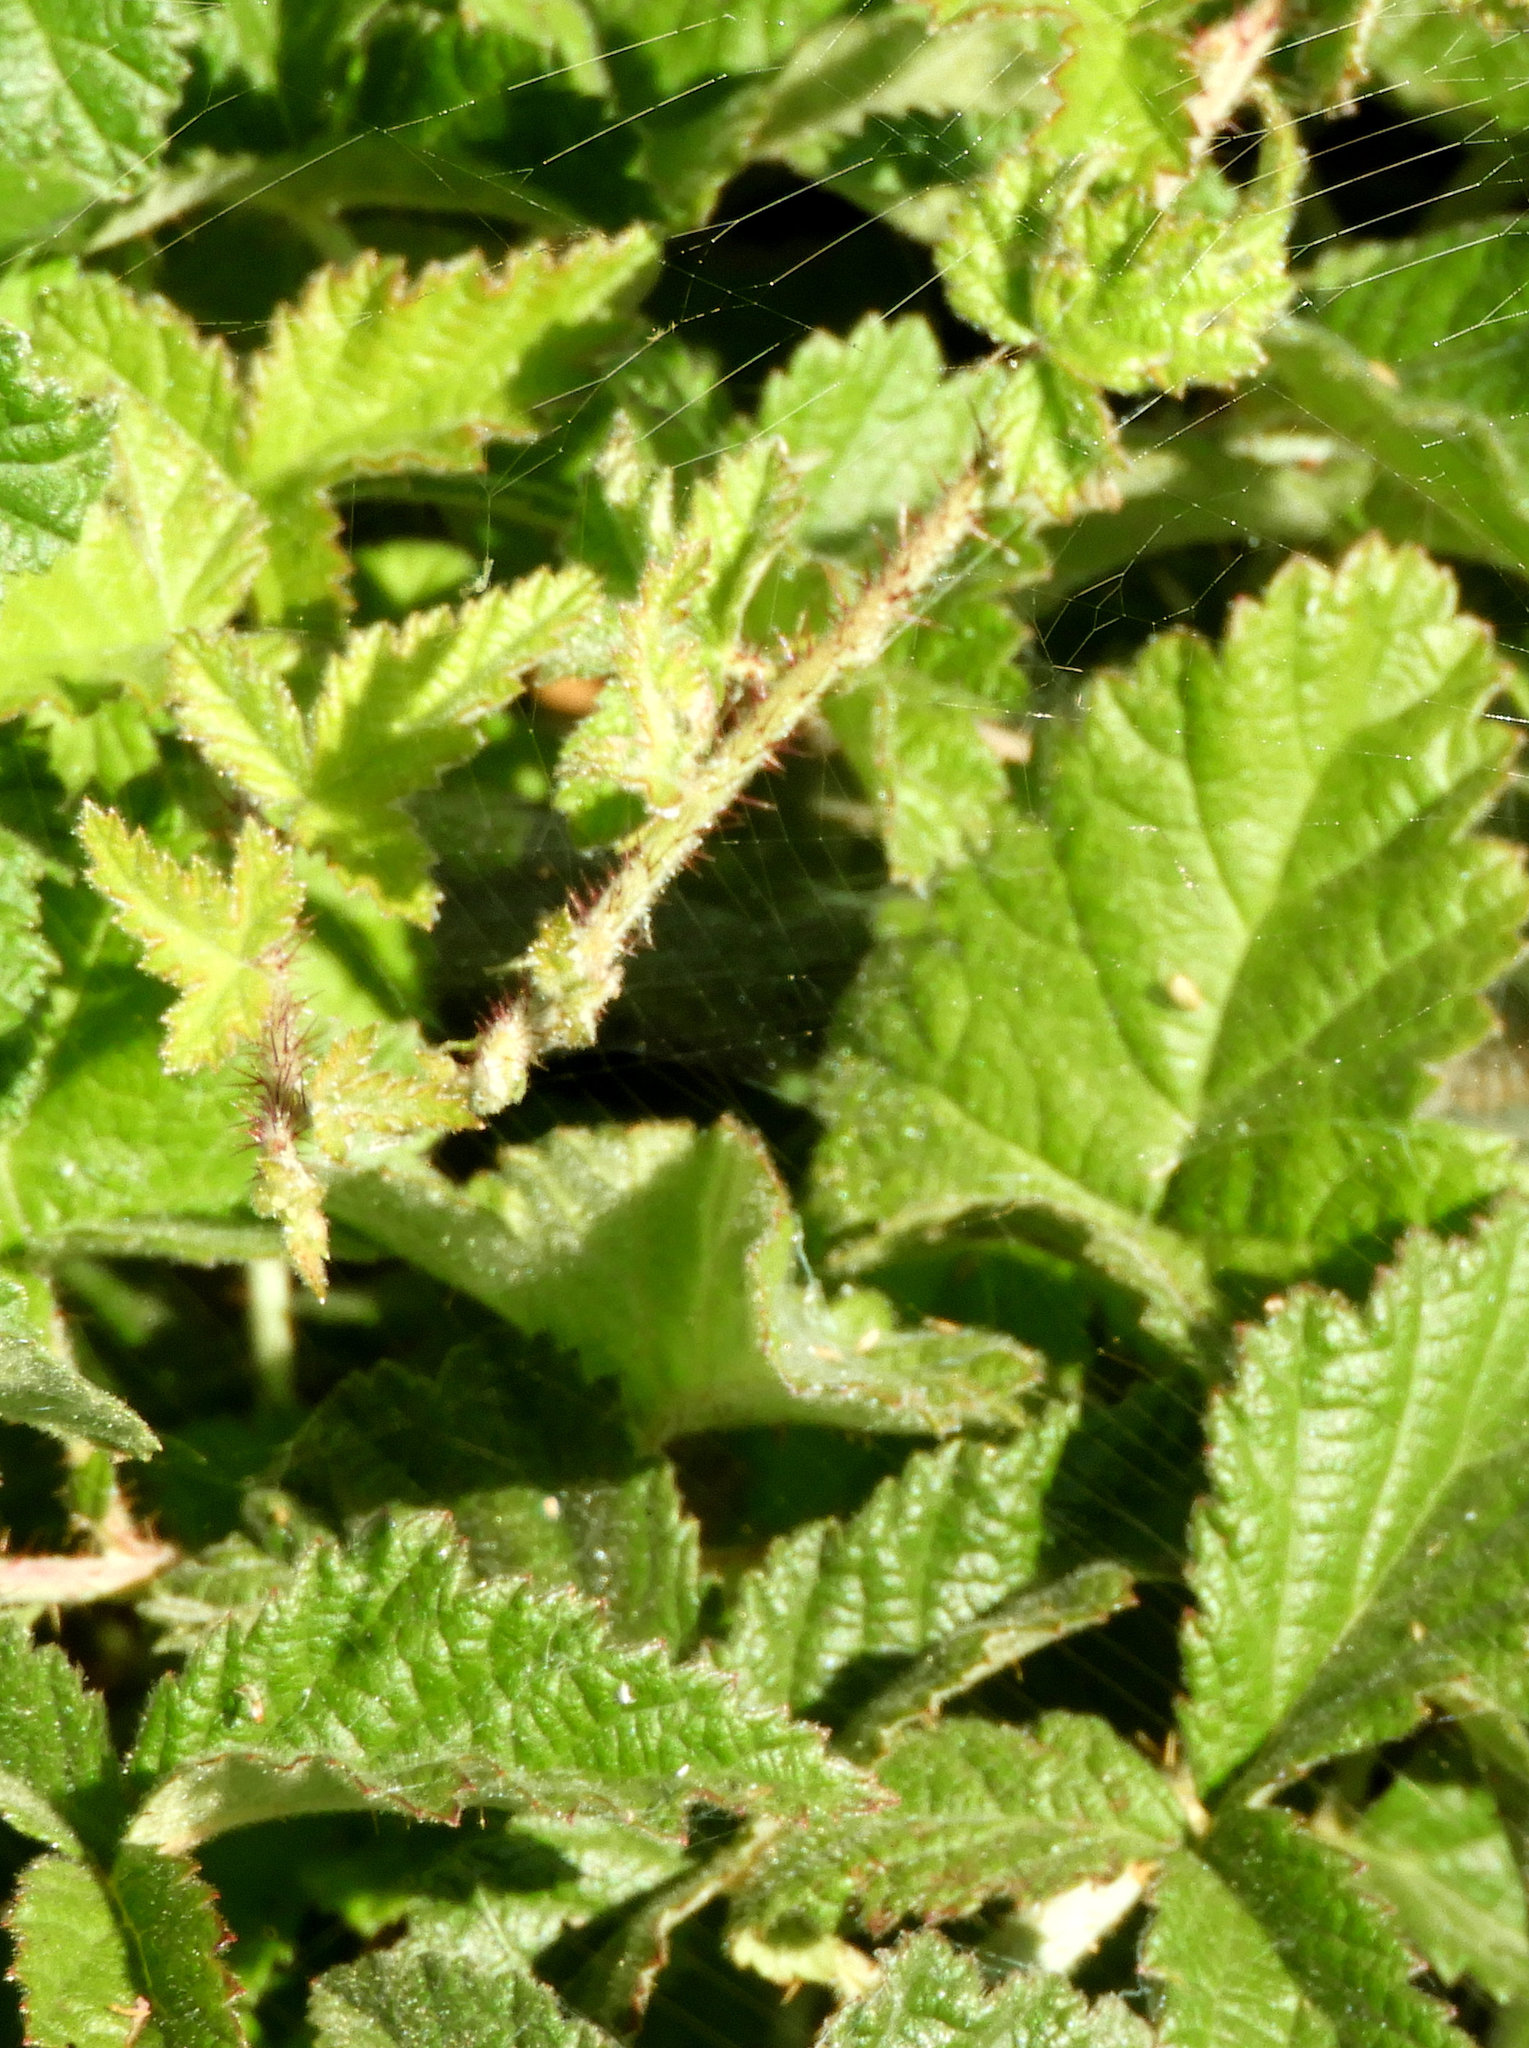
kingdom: Plantae
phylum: Tracheophyta
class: Magnoliopsida
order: Rosales
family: Rosaceae
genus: Rubus
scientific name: Rubus ursinus
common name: Pacific blackberry
